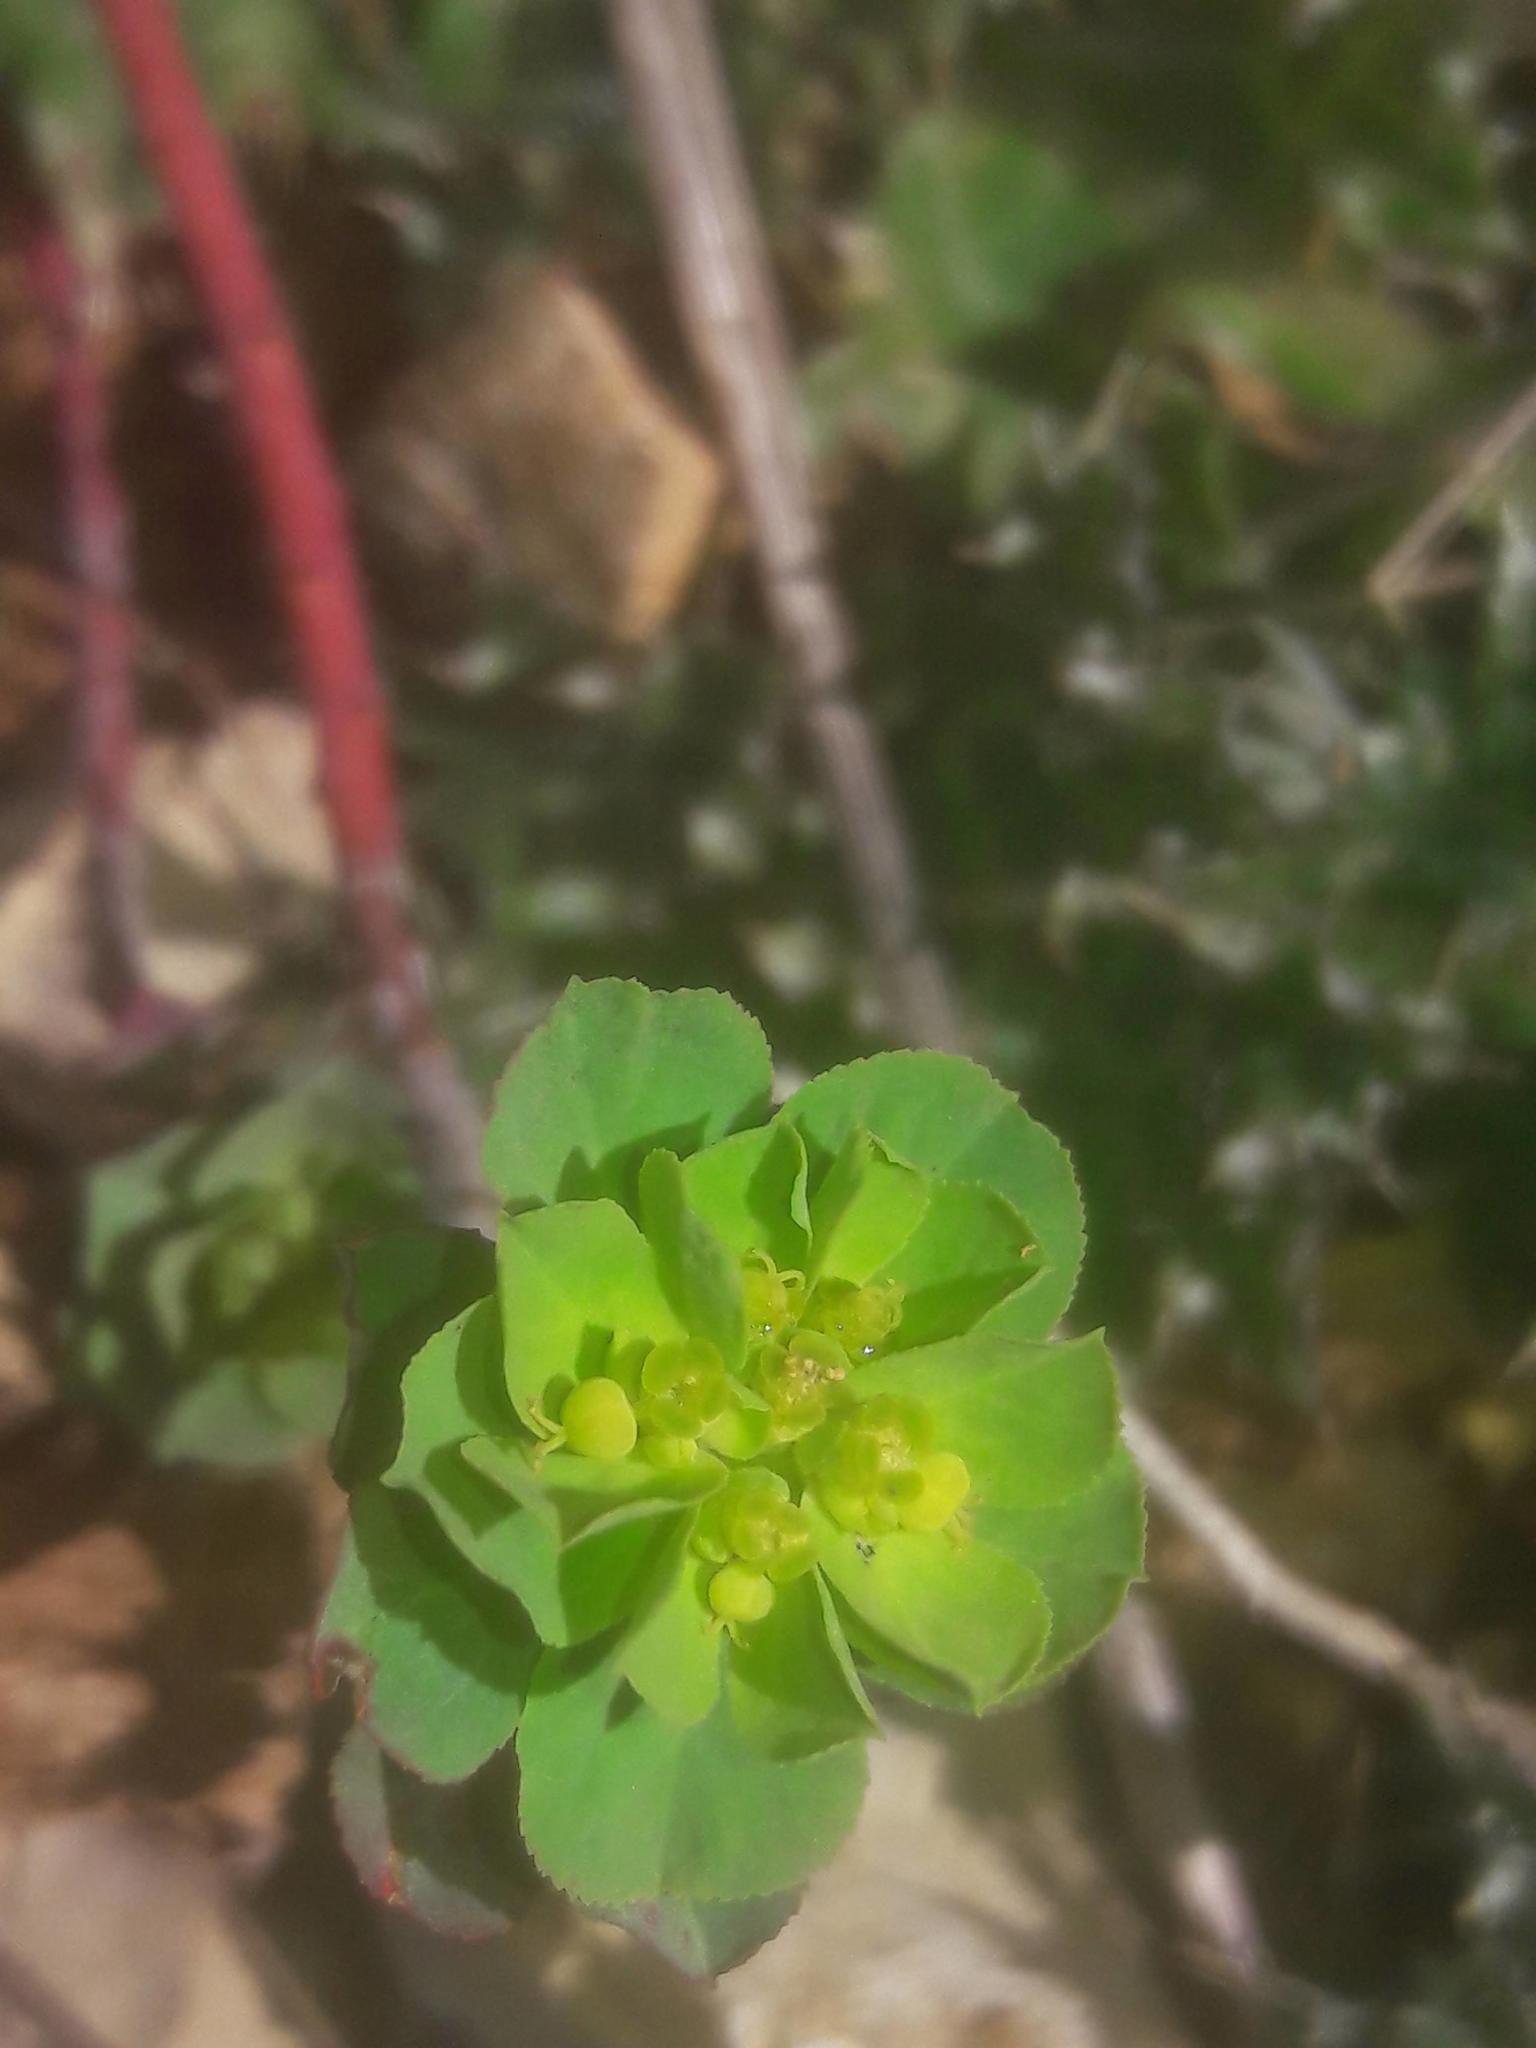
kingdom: Plantae
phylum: Tracheophyta
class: Magnoliopsida
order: Malpighiales
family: Euphorbiaceae
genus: Euphorbia
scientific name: Euphorbia helioscopia
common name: Sun spurge
